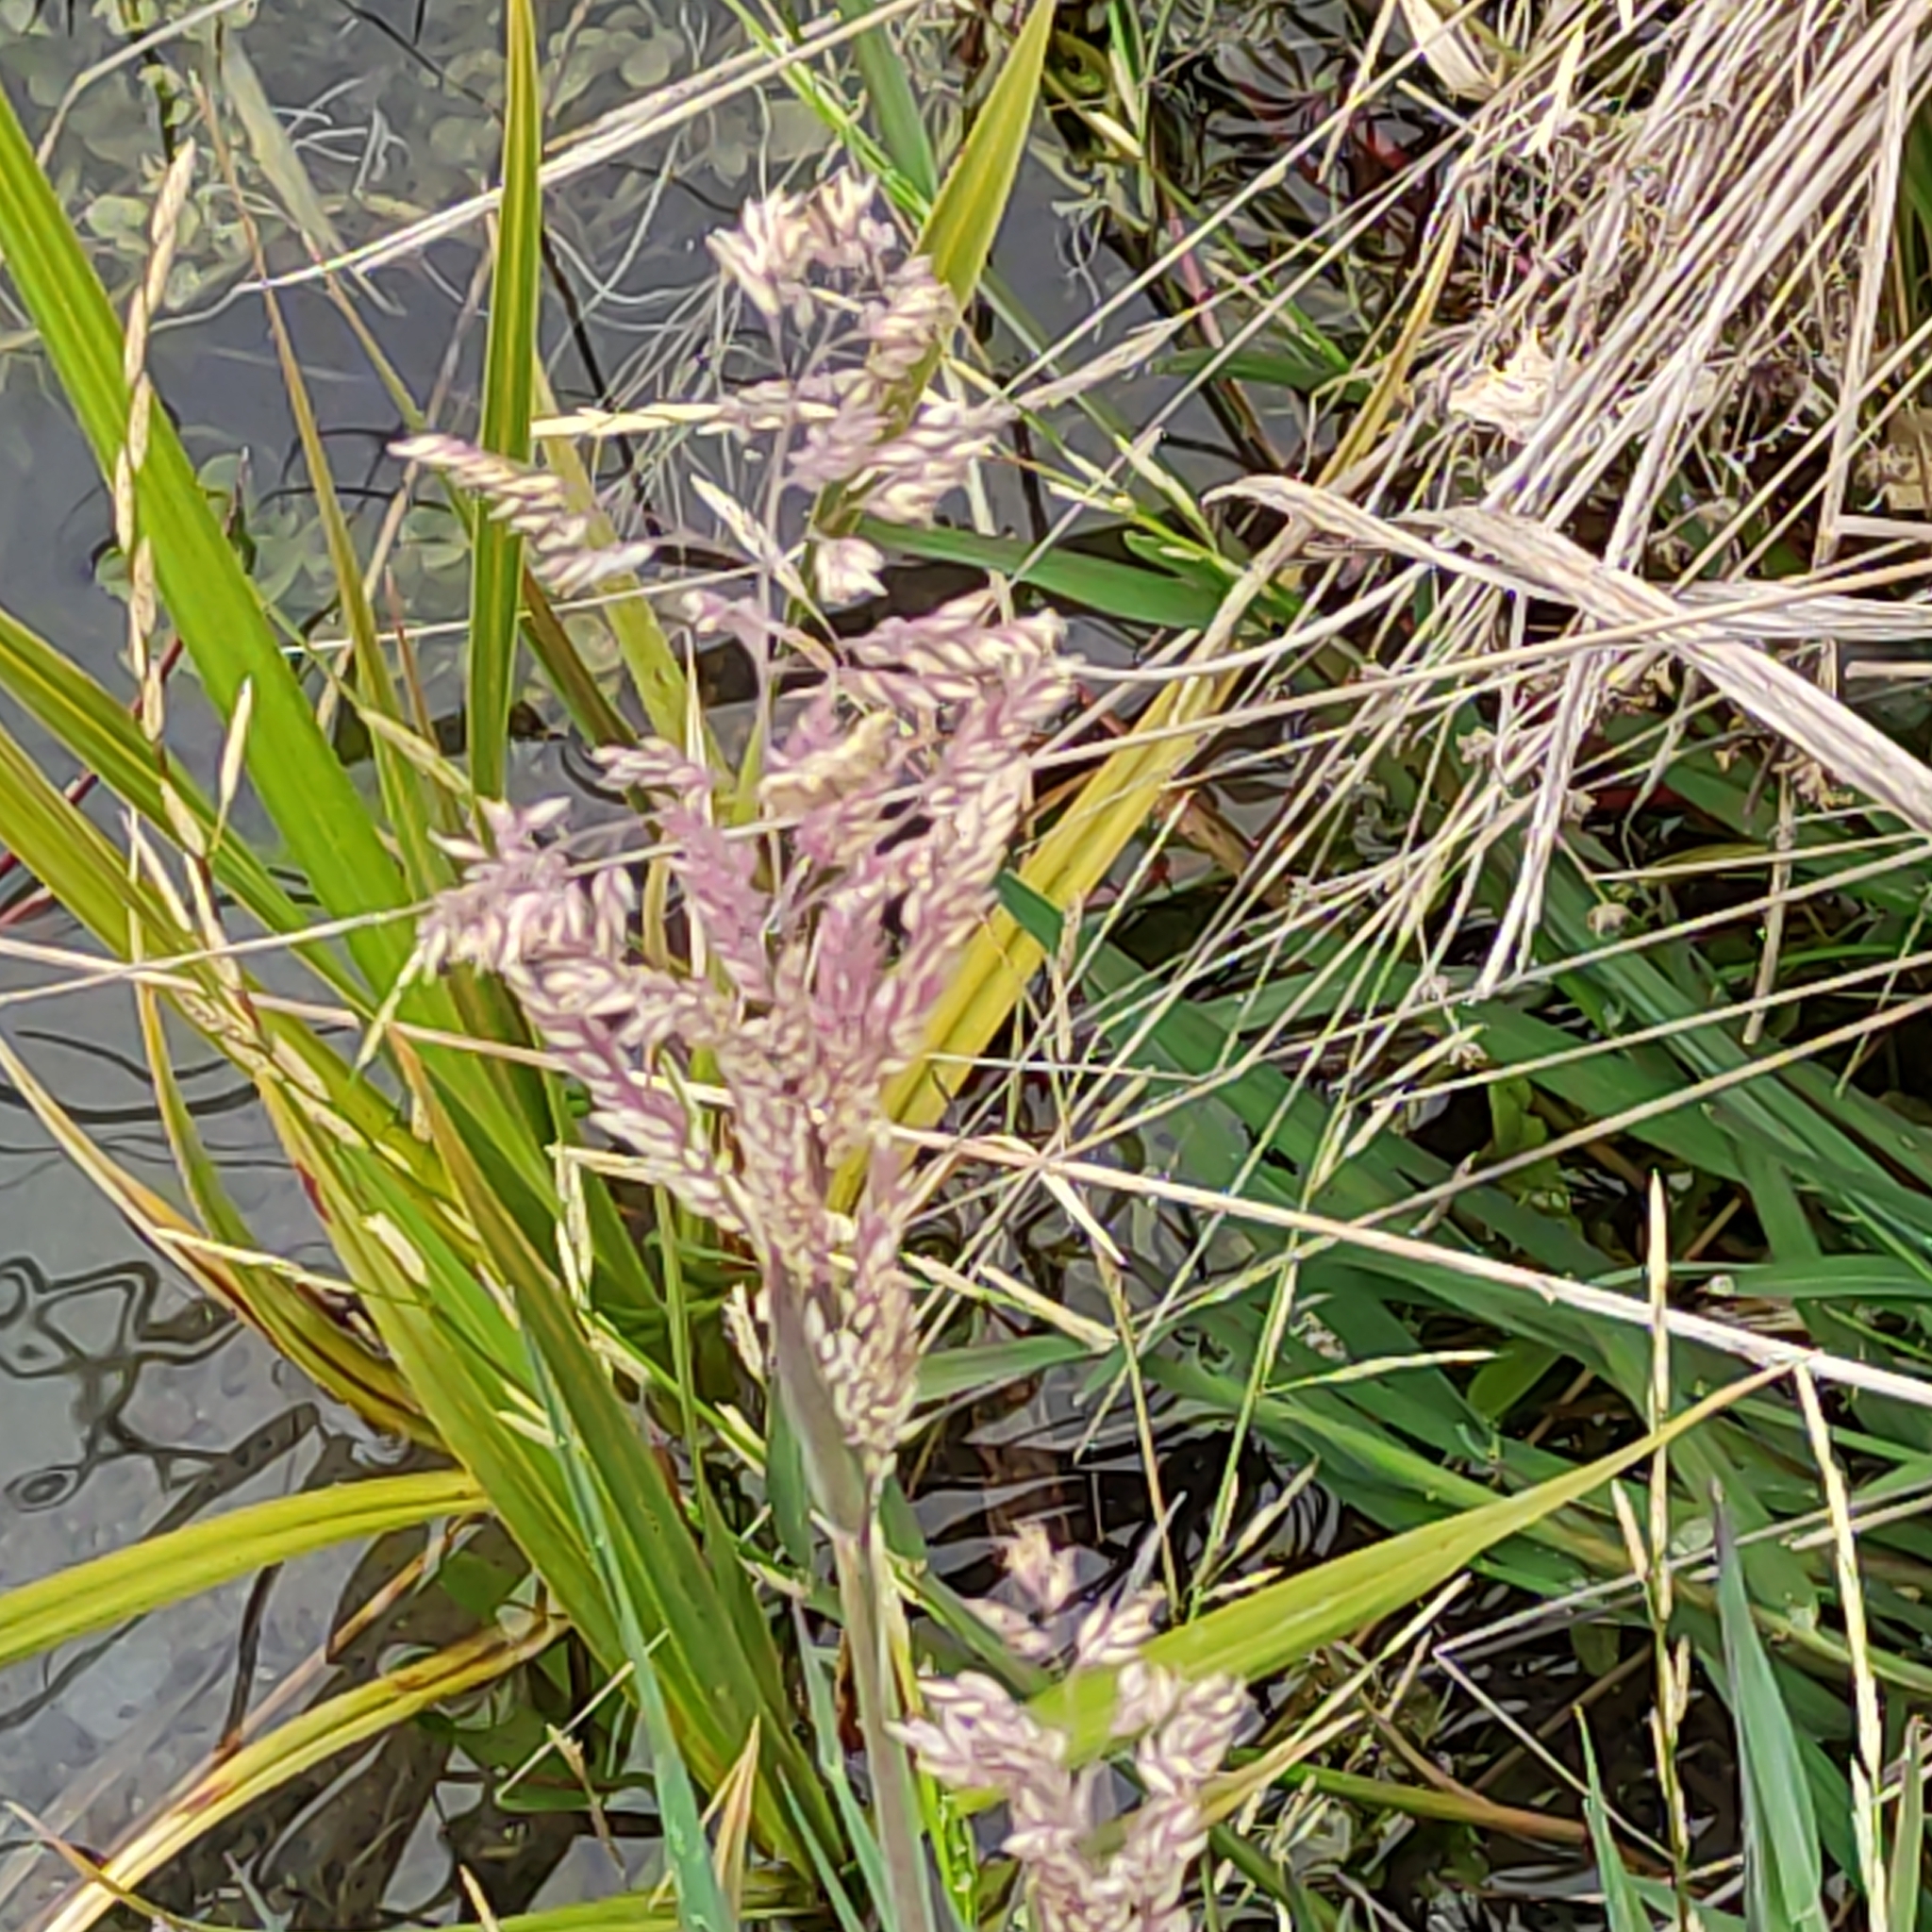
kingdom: Plantae
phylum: Tracheophyta
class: Liliopsida
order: Poales
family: Poaceae
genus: Holcus
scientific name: Holcus lanatus
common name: Yorkshire-fog
